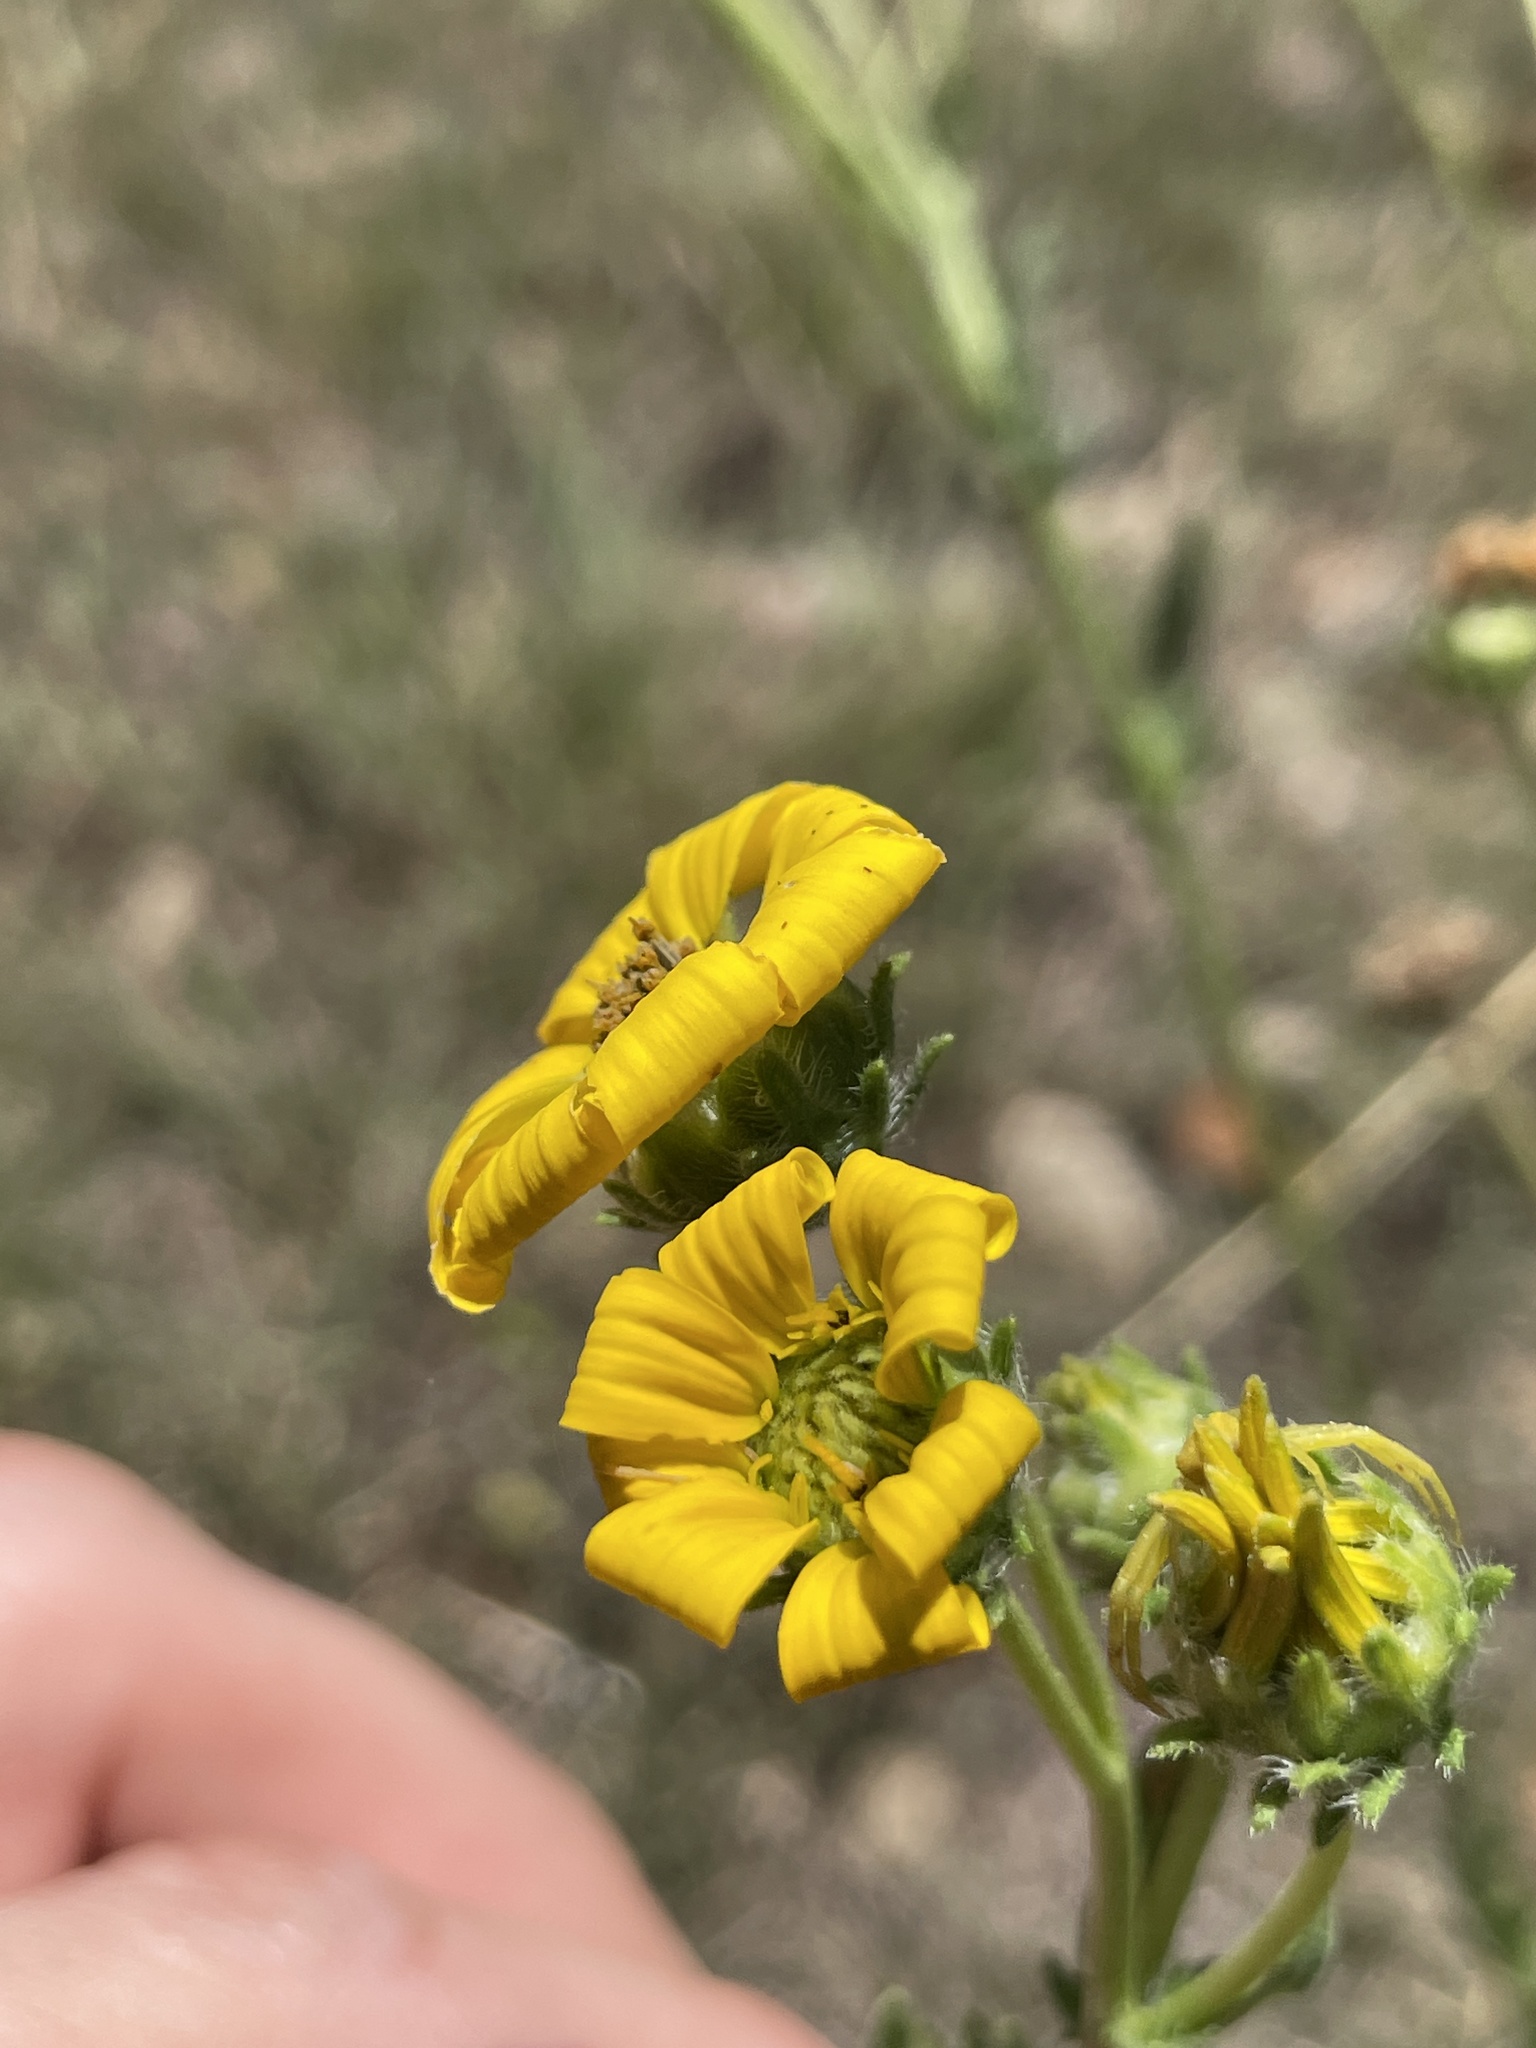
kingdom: Plantae
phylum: Tracheophyta
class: Magnoliopsida
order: Asterales
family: Asteraceae
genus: Engelmannia
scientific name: Engelmannia peristenia
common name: Engelmann's daisy
